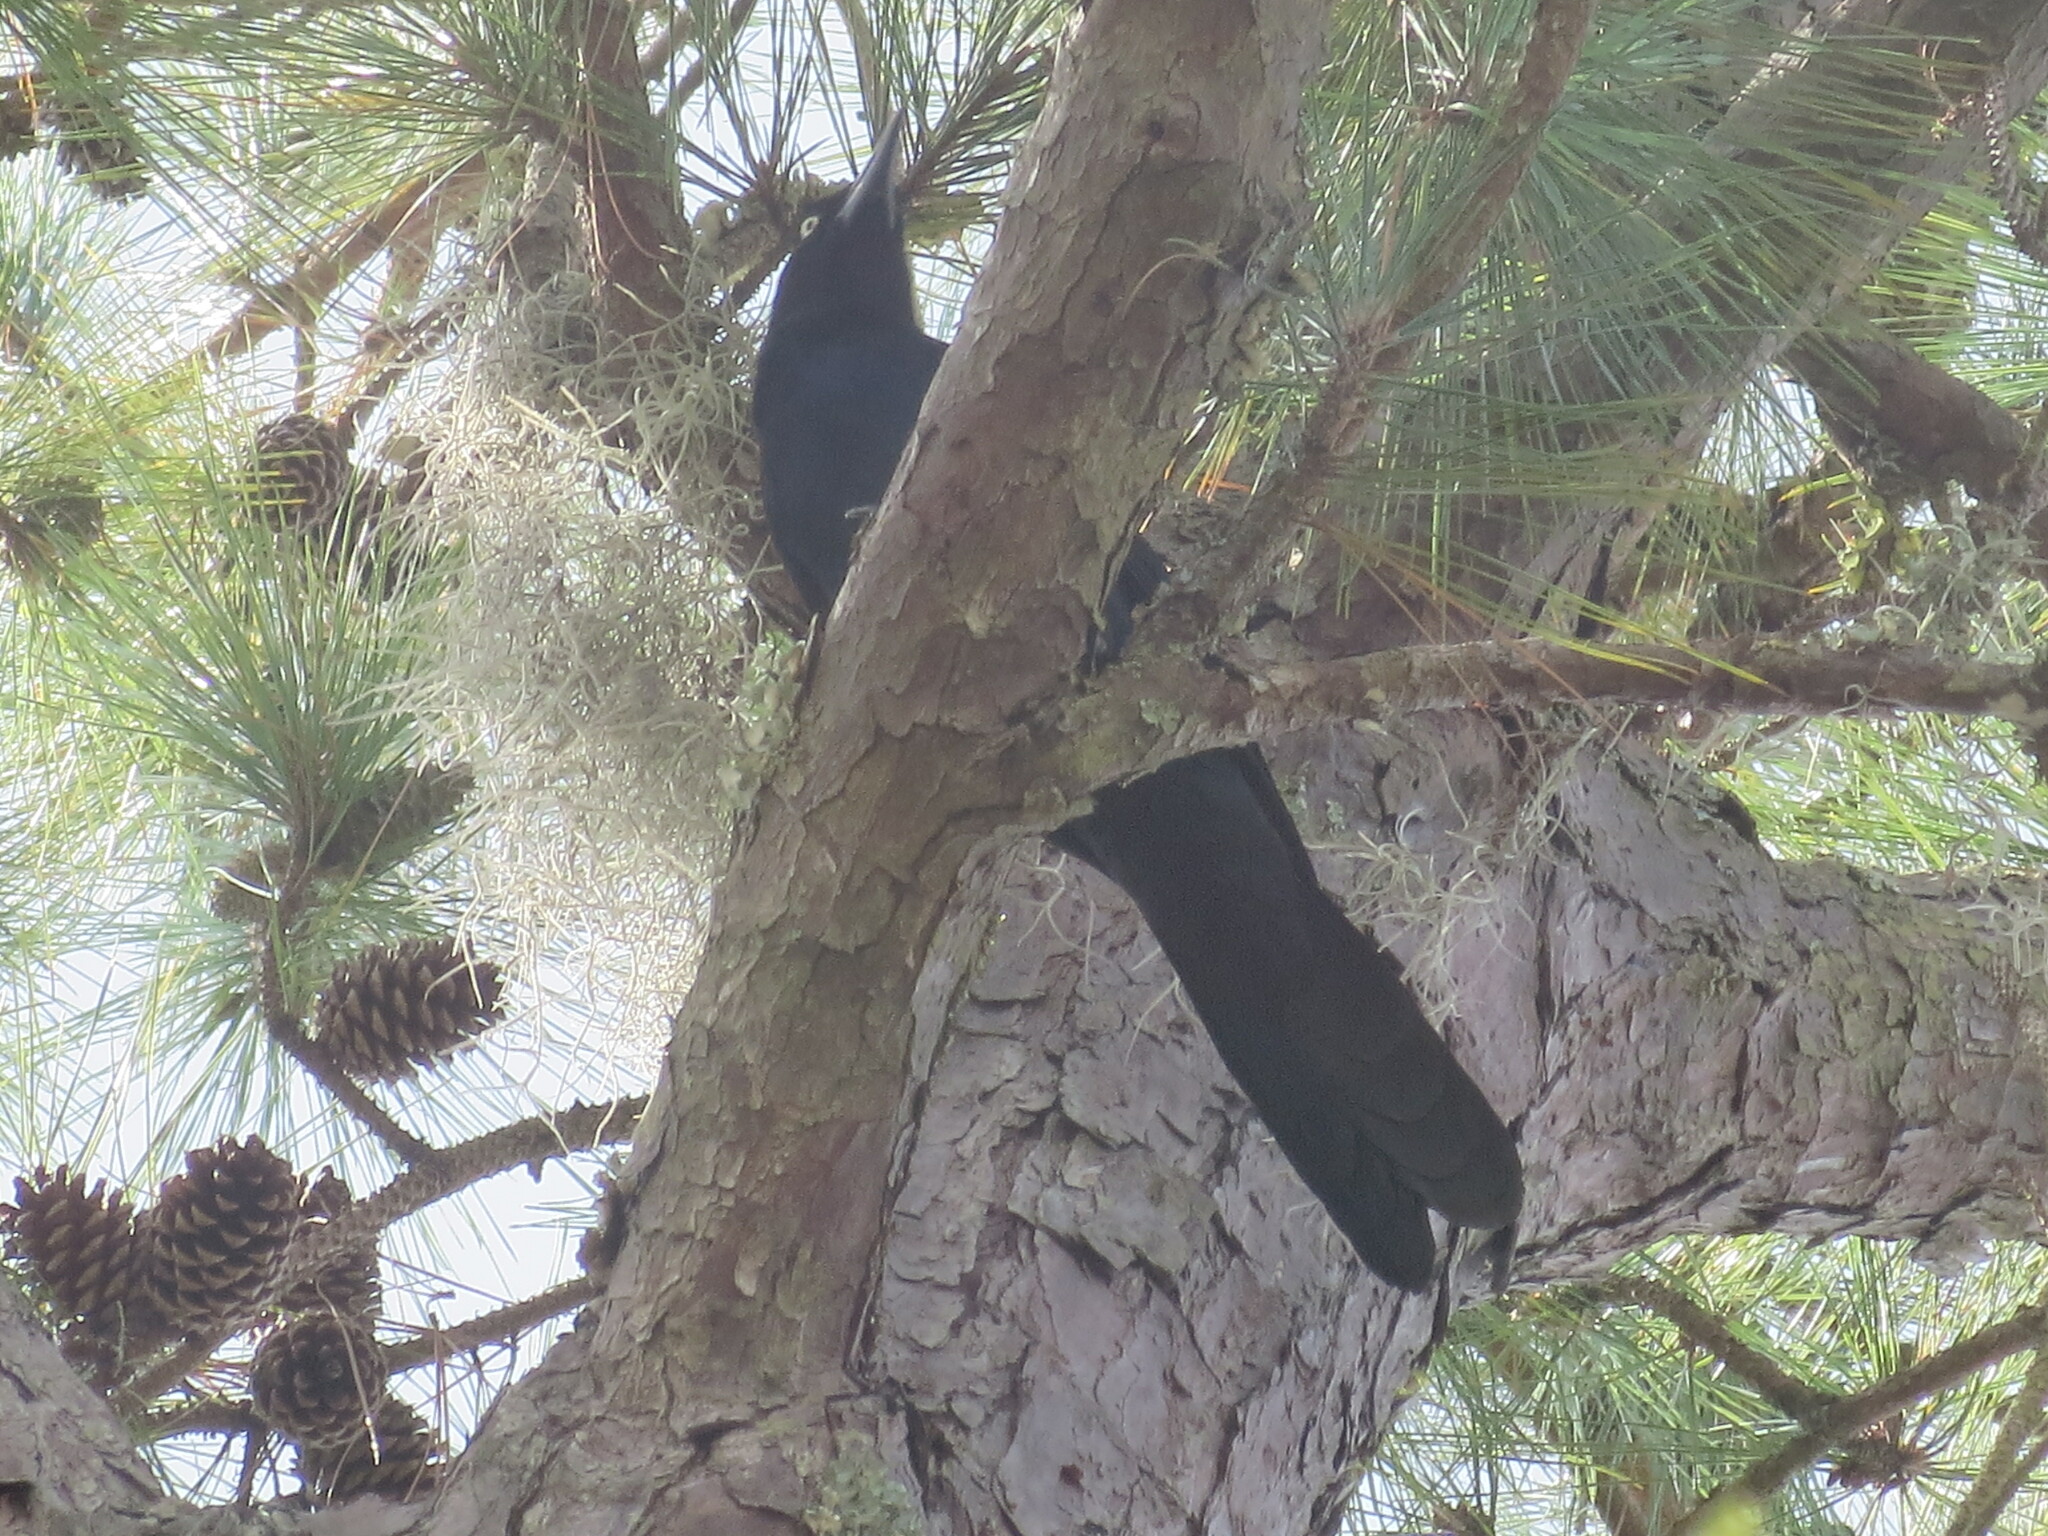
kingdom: Animalia
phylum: Chordata
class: Aves
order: Passeriformes
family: Icteridae
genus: Quiscalus
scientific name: Quiscalus major
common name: Boat-tailed grackle
